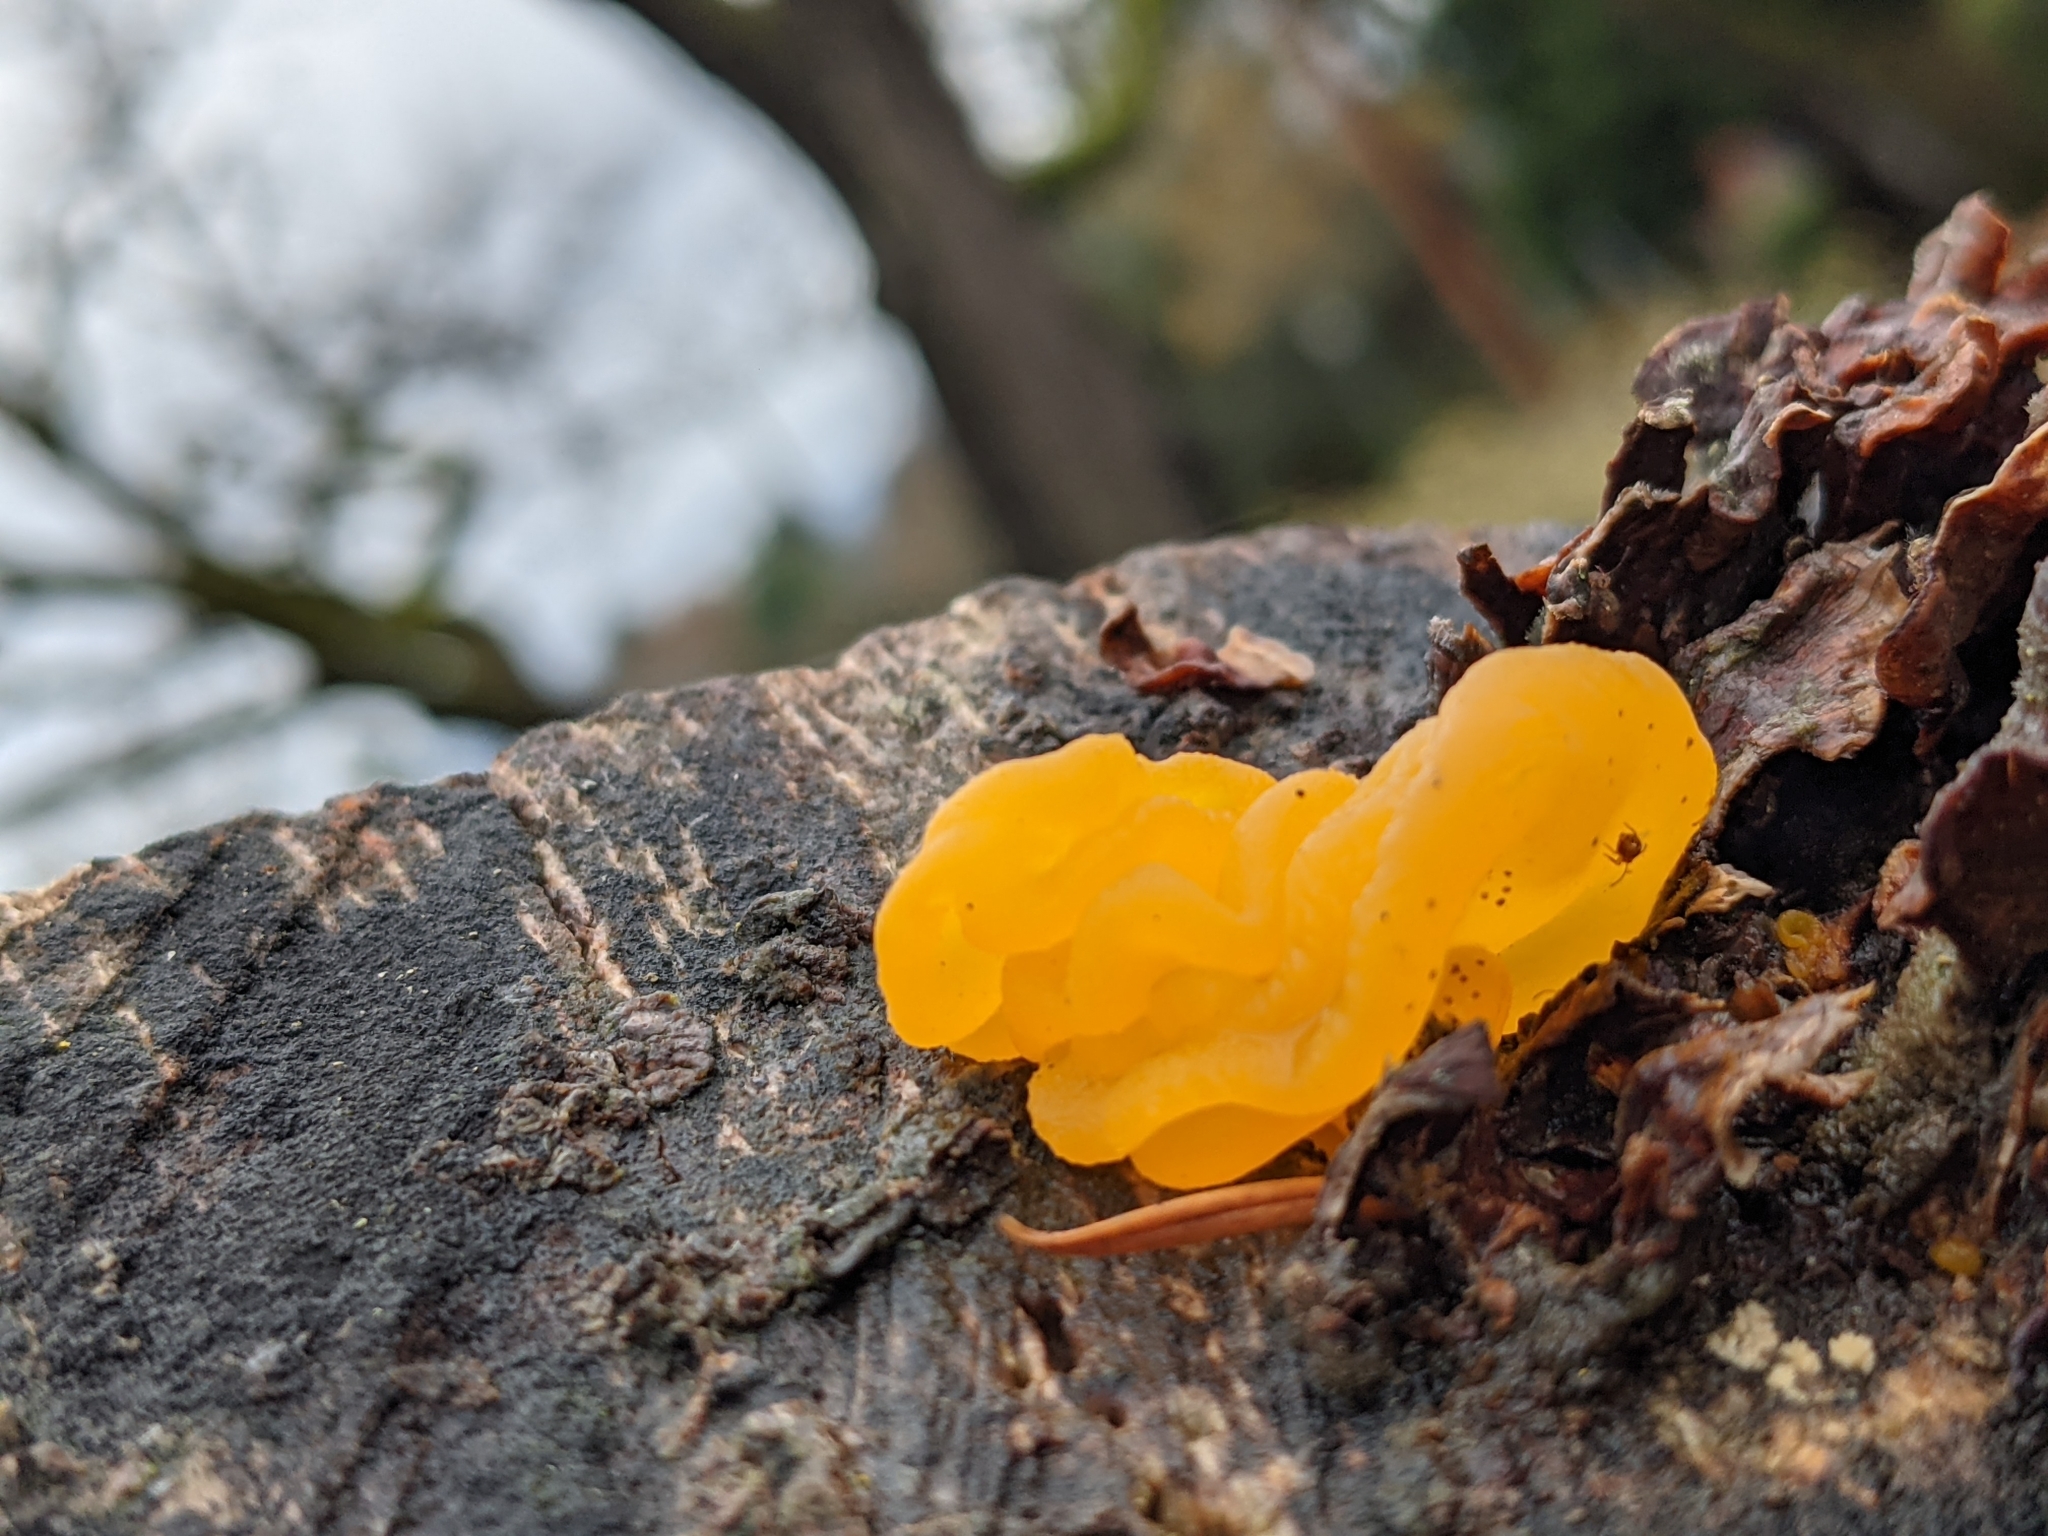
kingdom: Fungi
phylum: Basidiomycota
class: Tremellomycetes
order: Tremellales
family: Naemateliaceae
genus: Naematelia
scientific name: Naematelia aurantia
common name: Golden ear
